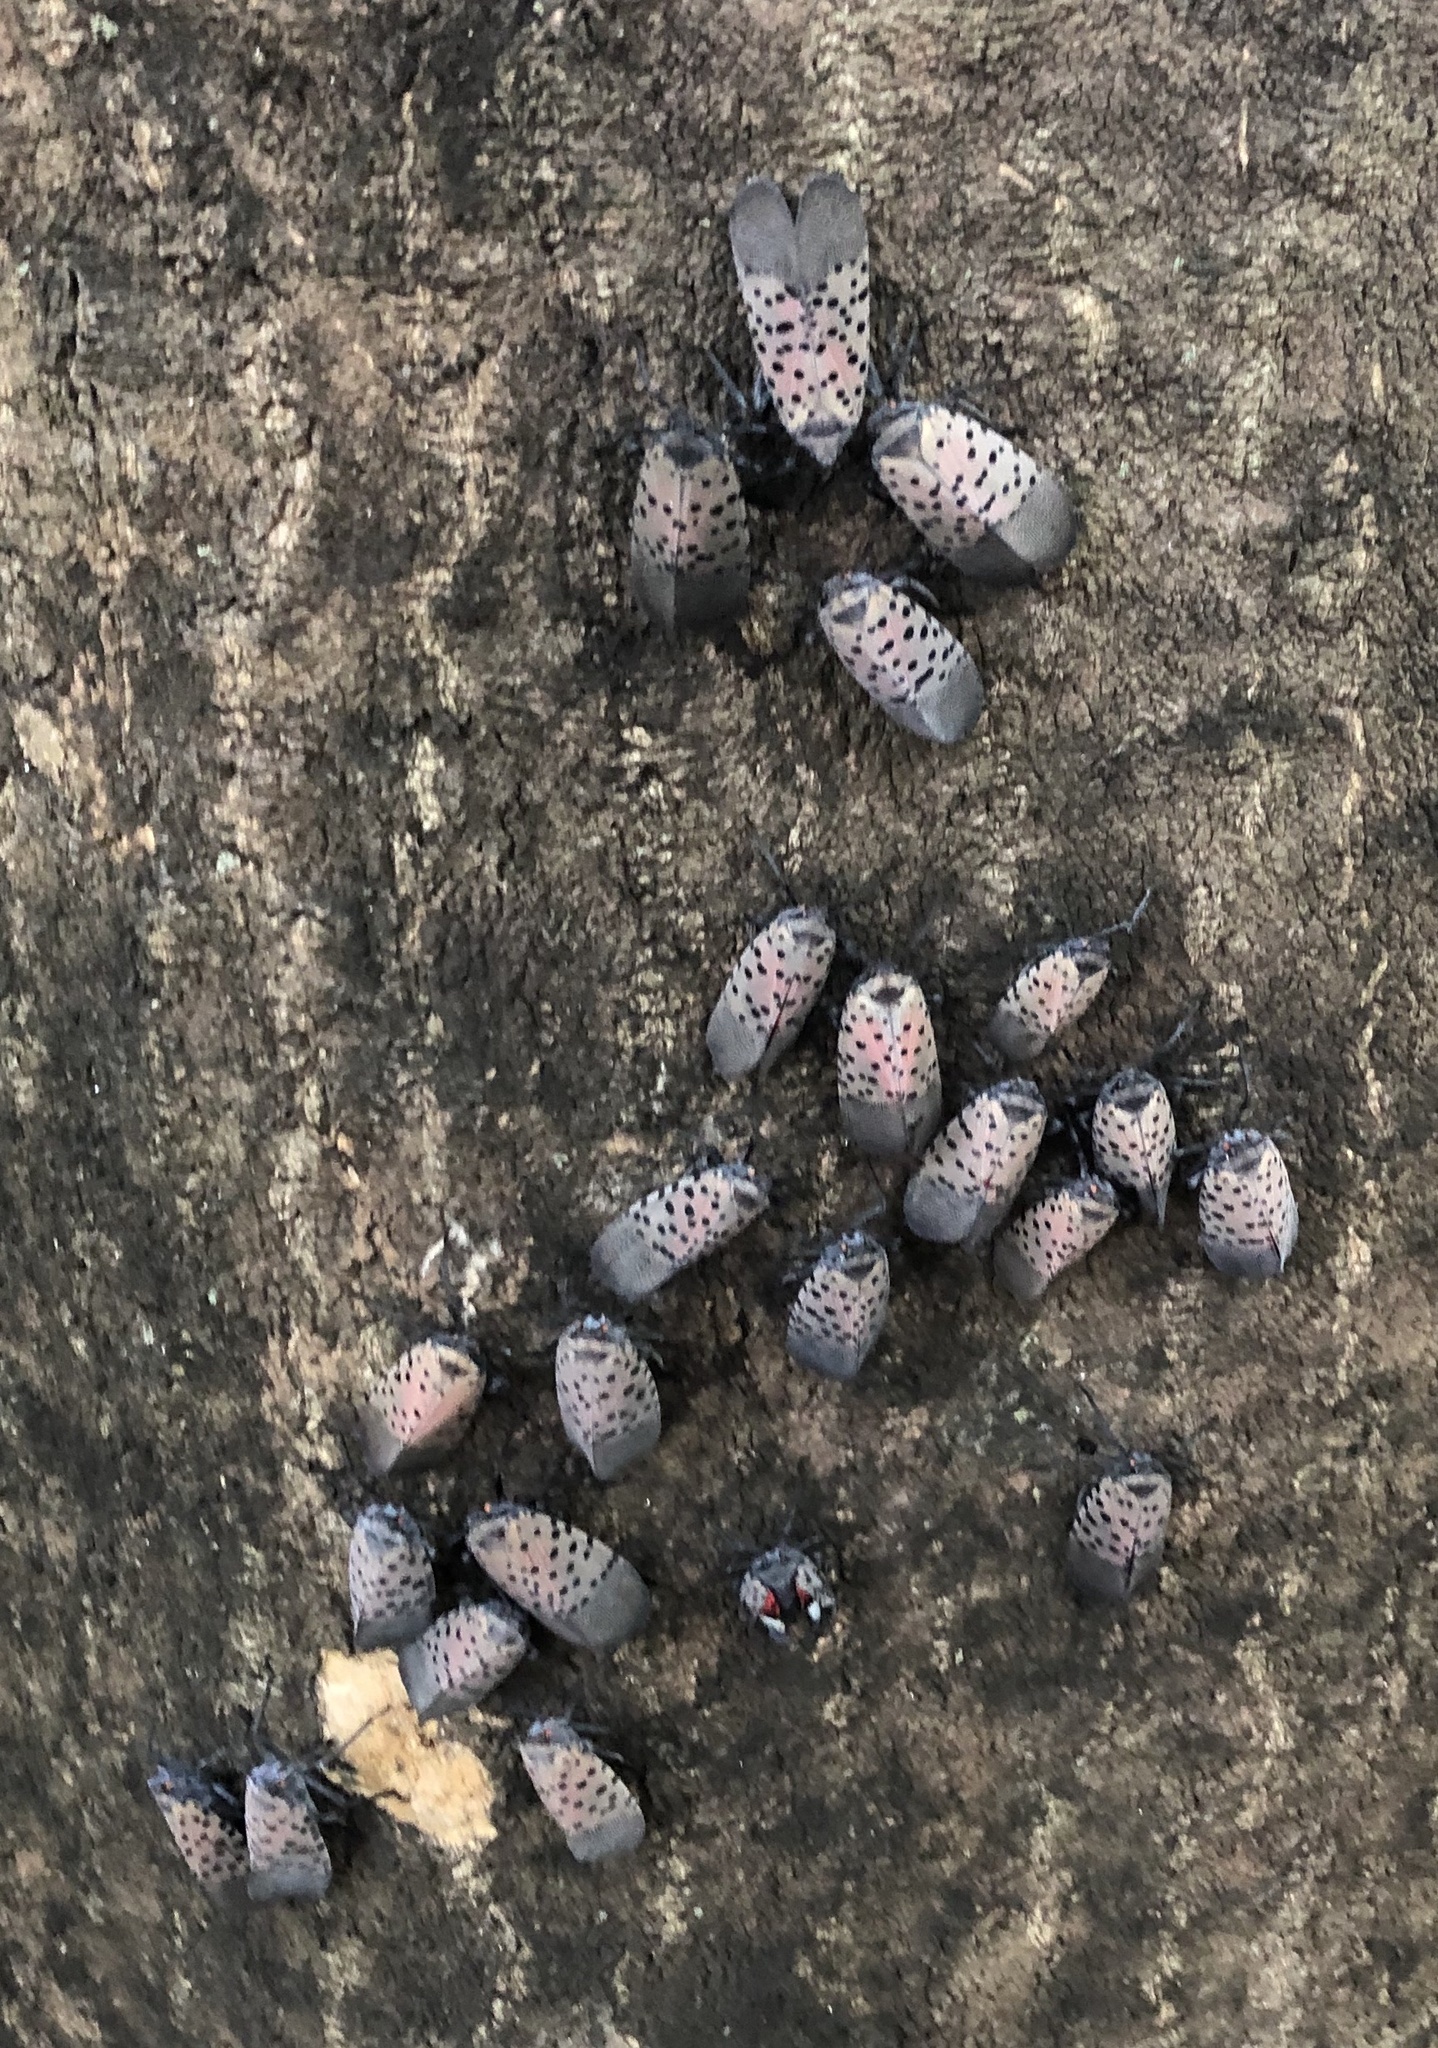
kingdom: Animalia
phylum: Arthropoda
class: Insecta
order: Hemiptera
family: Fulgoridae
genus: Lycorma
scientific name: Lycorma delicatula
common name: Spotted lanternfly
